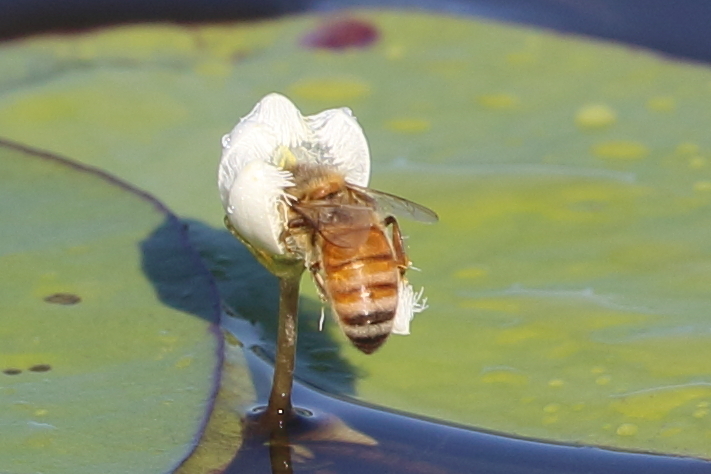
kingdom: Animalia
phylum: Arthropoda
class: Insecta
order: Hymenoptera
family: Apidae
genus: Apis
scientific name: Apis mellifera
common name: Honey bee
